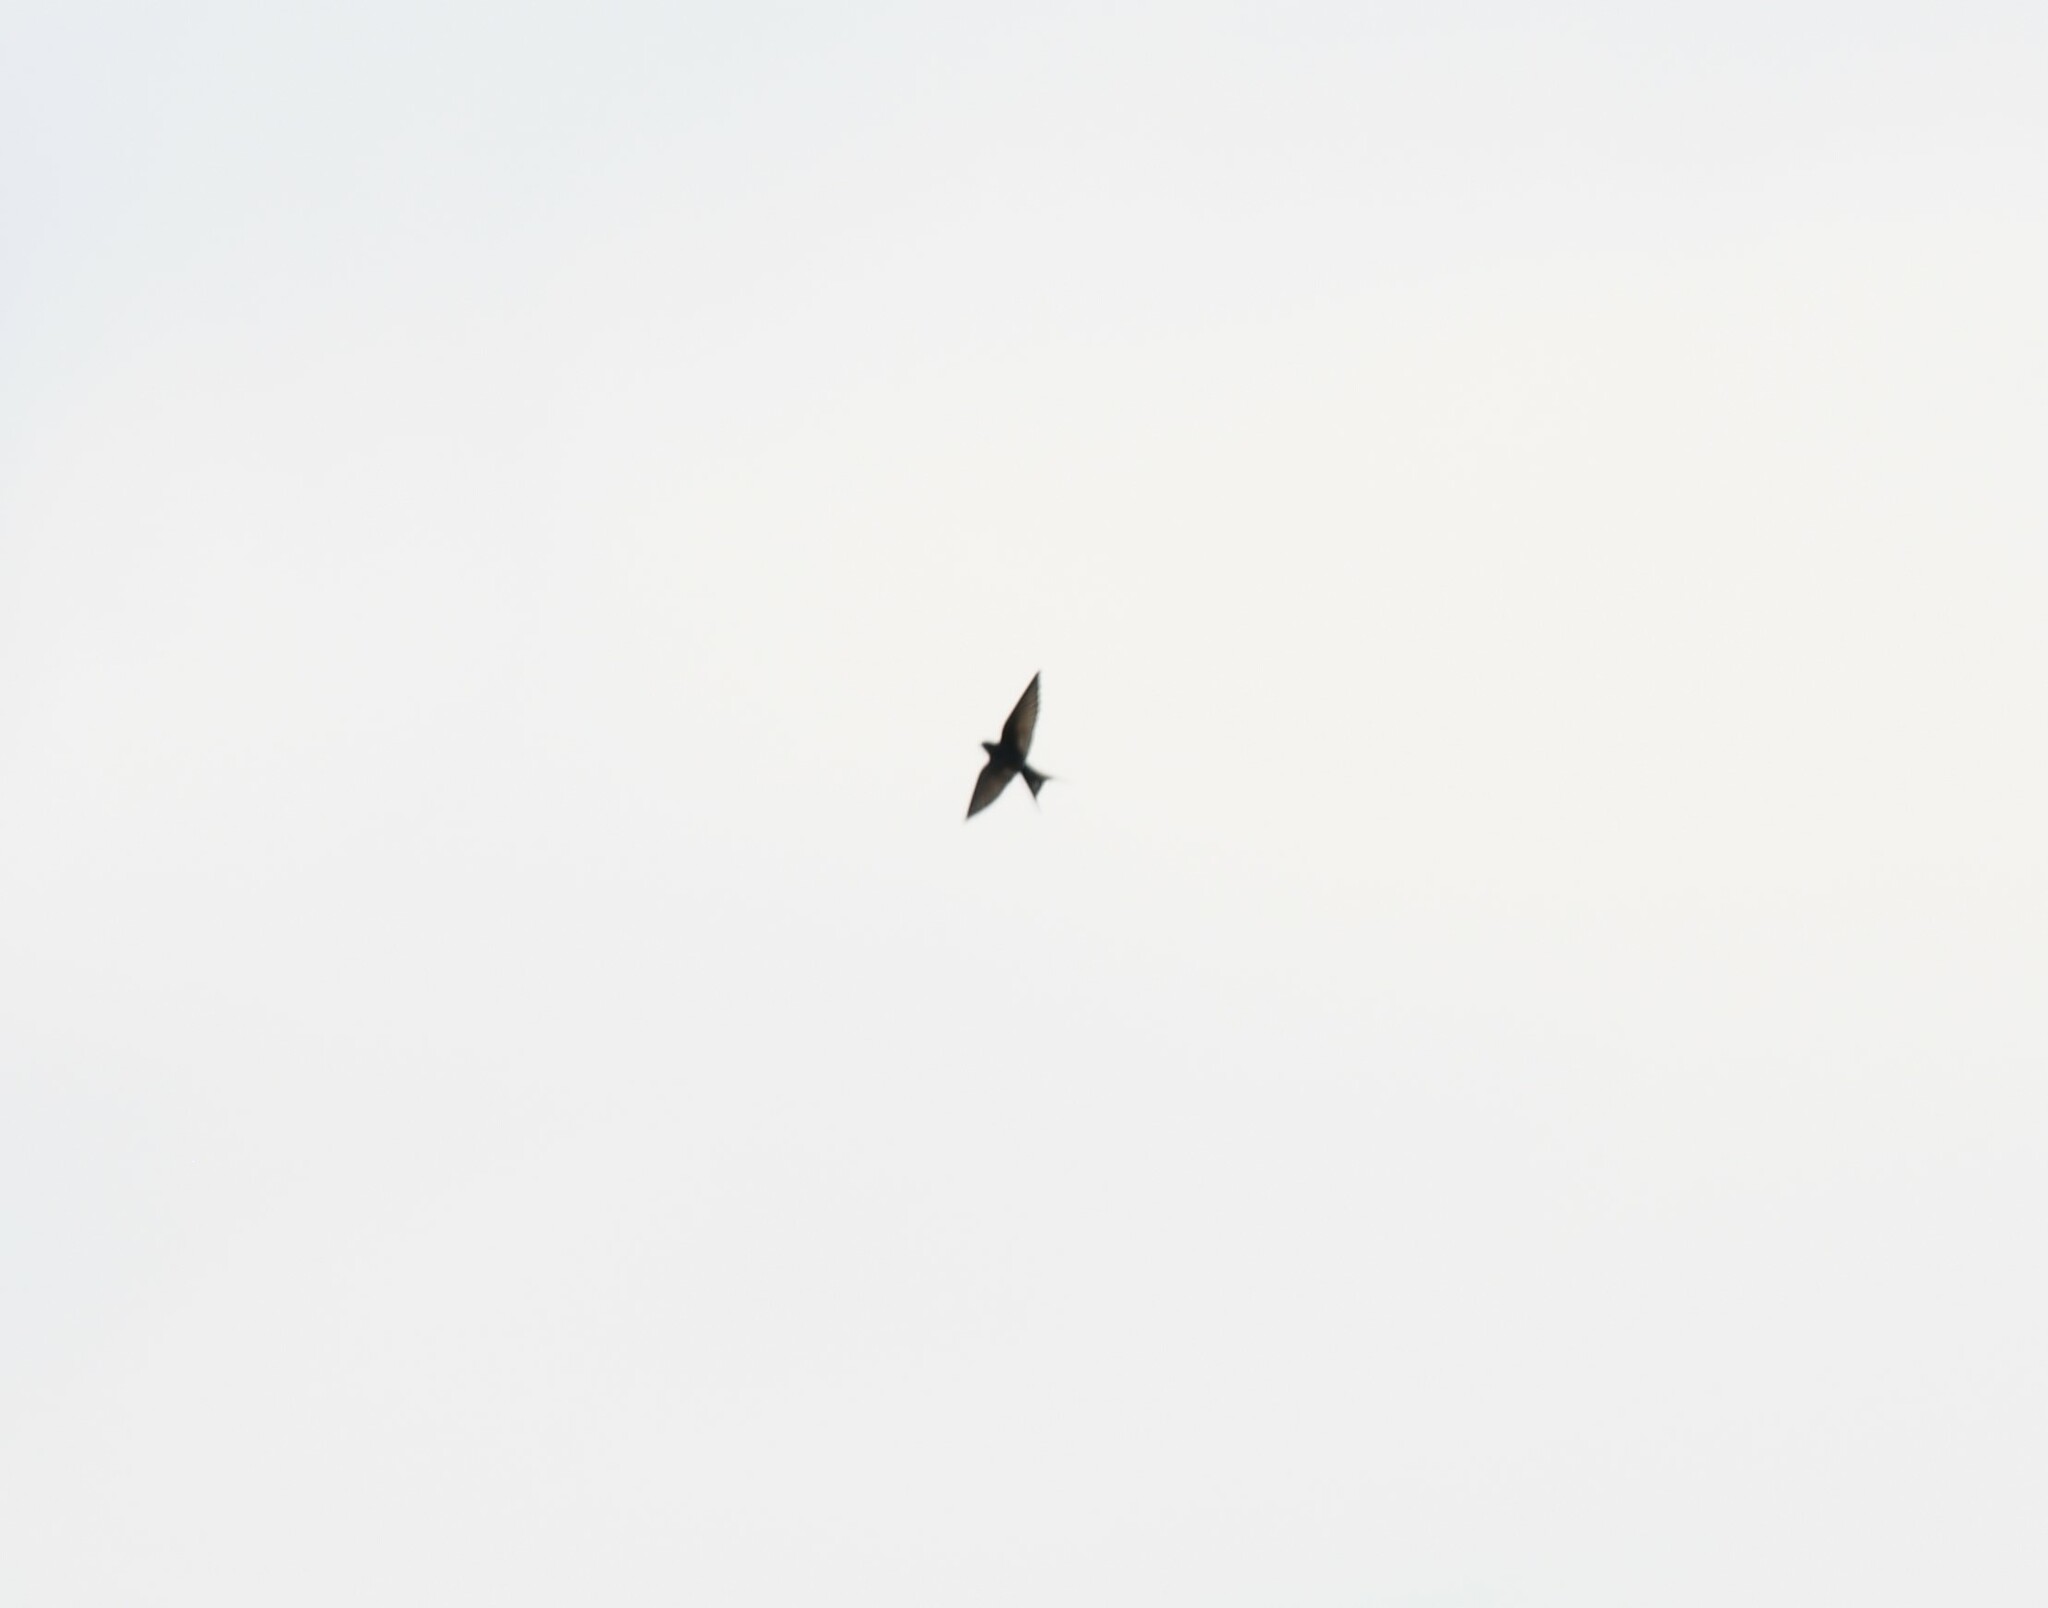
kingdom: Animalia
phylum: Chordata
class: Aves
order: Passeriformes
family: Hirundinidae
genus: Hirundo
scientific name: Hirundo neoxena
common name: Welcome swallow
